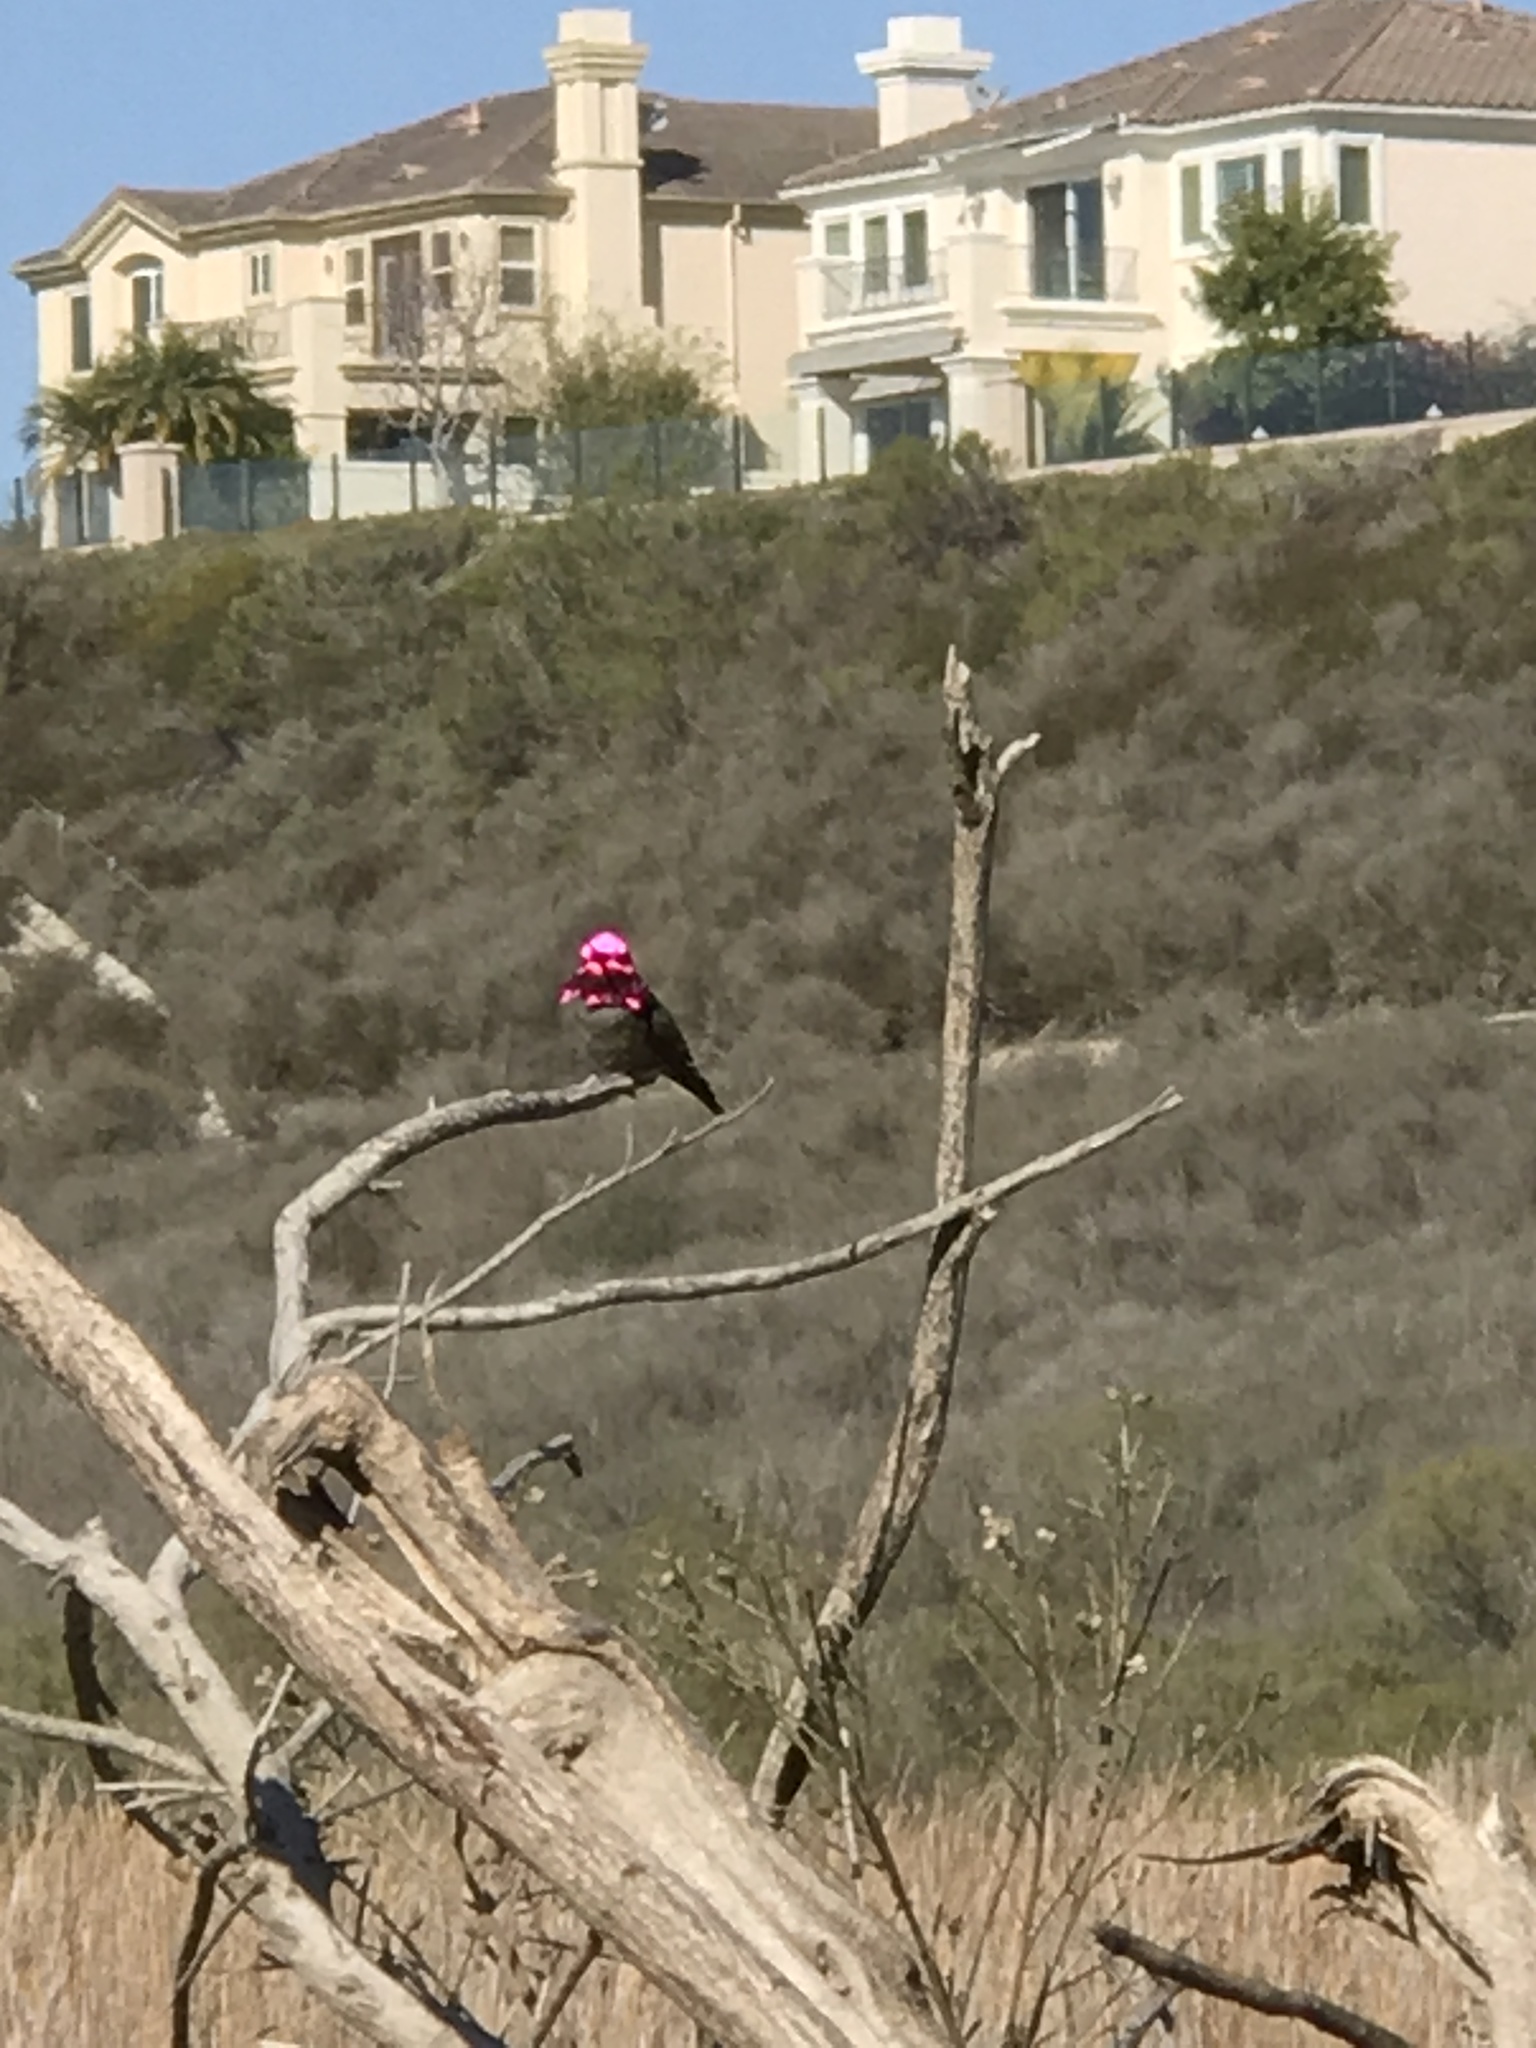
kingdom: Animalia
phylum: Chordata
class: Aves
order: Apodiformes
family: Trochilidae
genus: Calypte
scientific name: Calypte anna
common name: Anna's hummingbird
